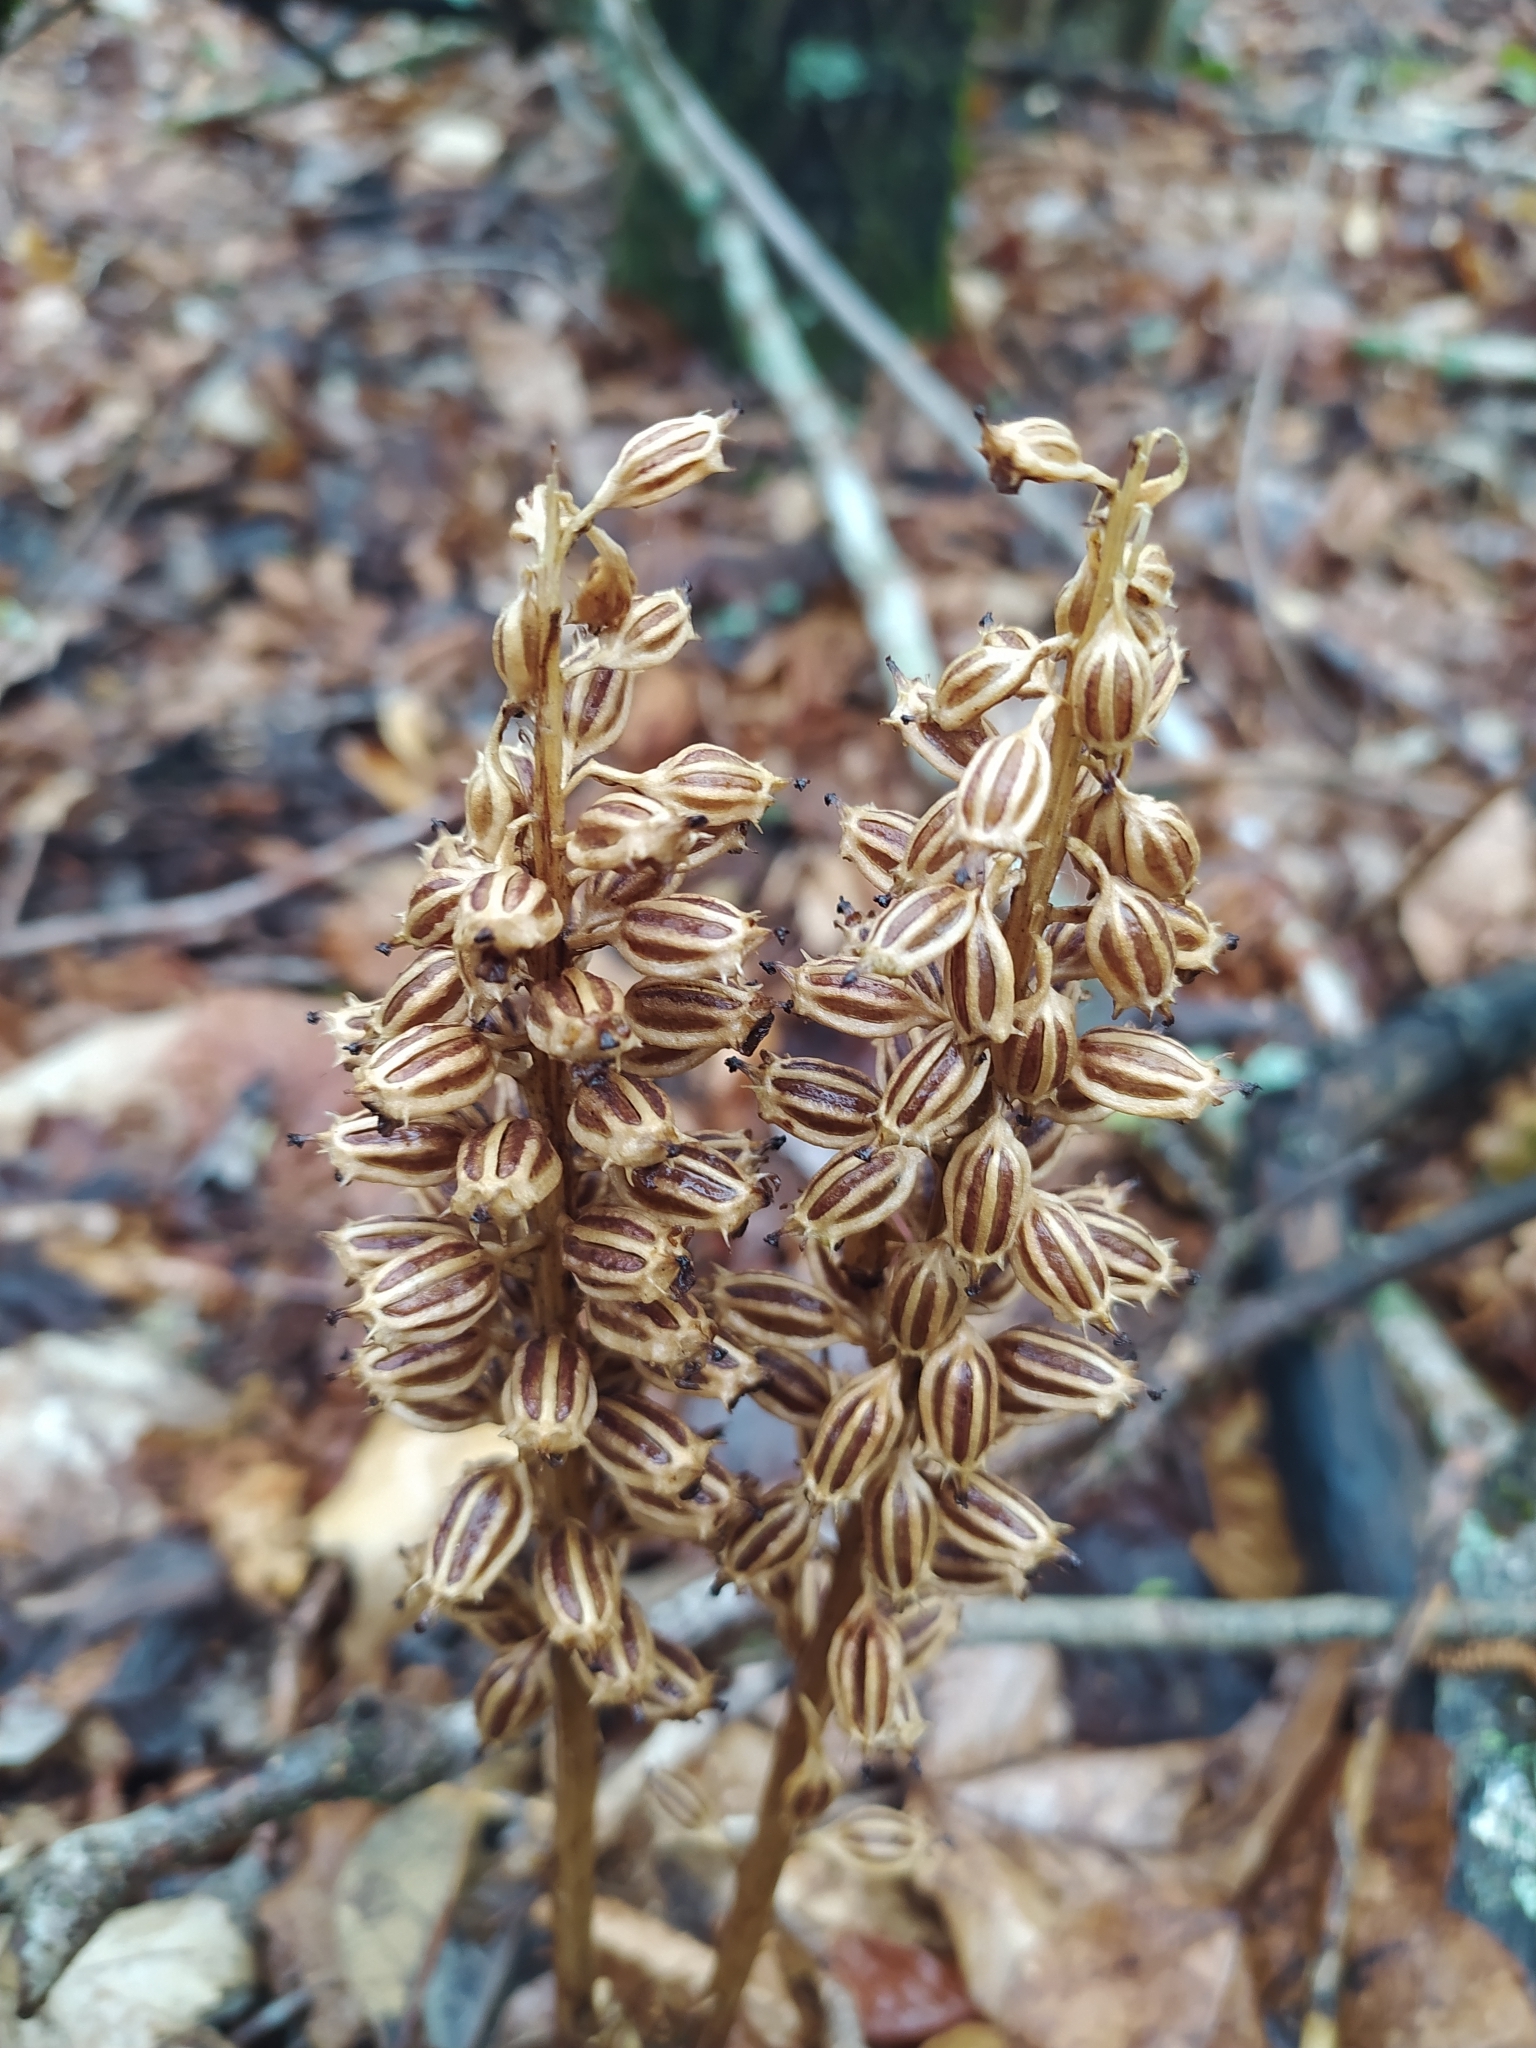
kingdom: Plantae
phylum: Tracheophyta
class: Liliopsida
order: Asparagales
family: Orchidaceae
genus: Neottia
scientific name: Neottia nidus-avis
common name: Bird's-nest orchid
